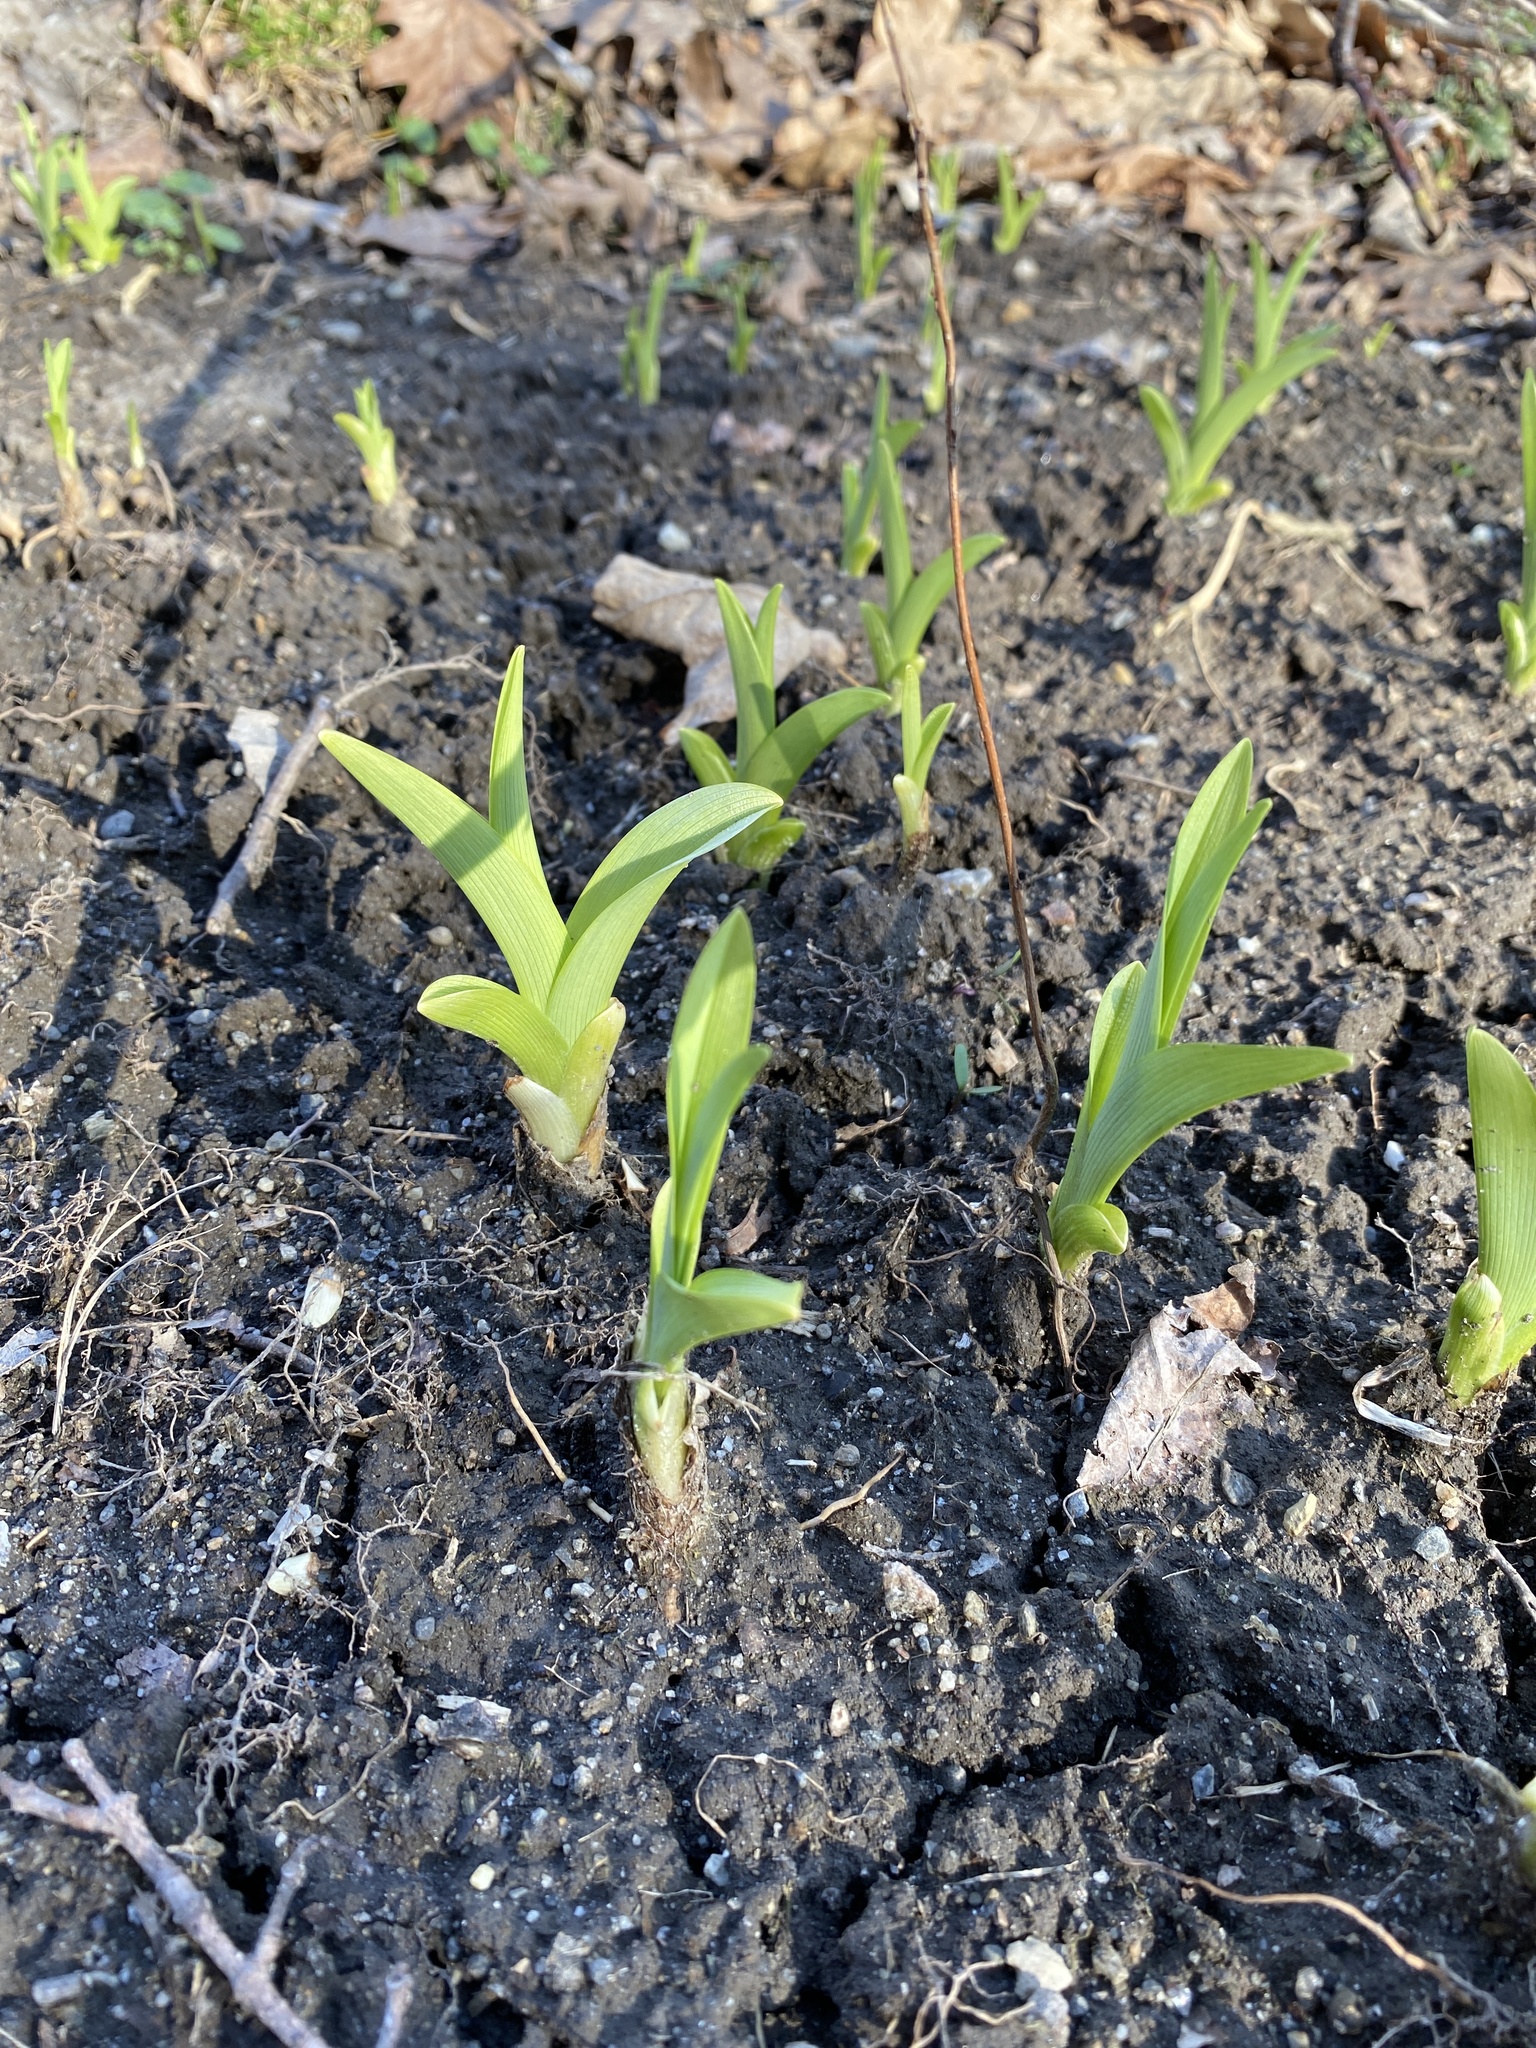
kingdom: Plantae
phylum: Tracheophyta
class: Liliopsida
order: Asparagales
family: Asphodelaceae
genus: Hemerocallis
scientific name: Hemerocallis fulva
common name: Orange day-lily
